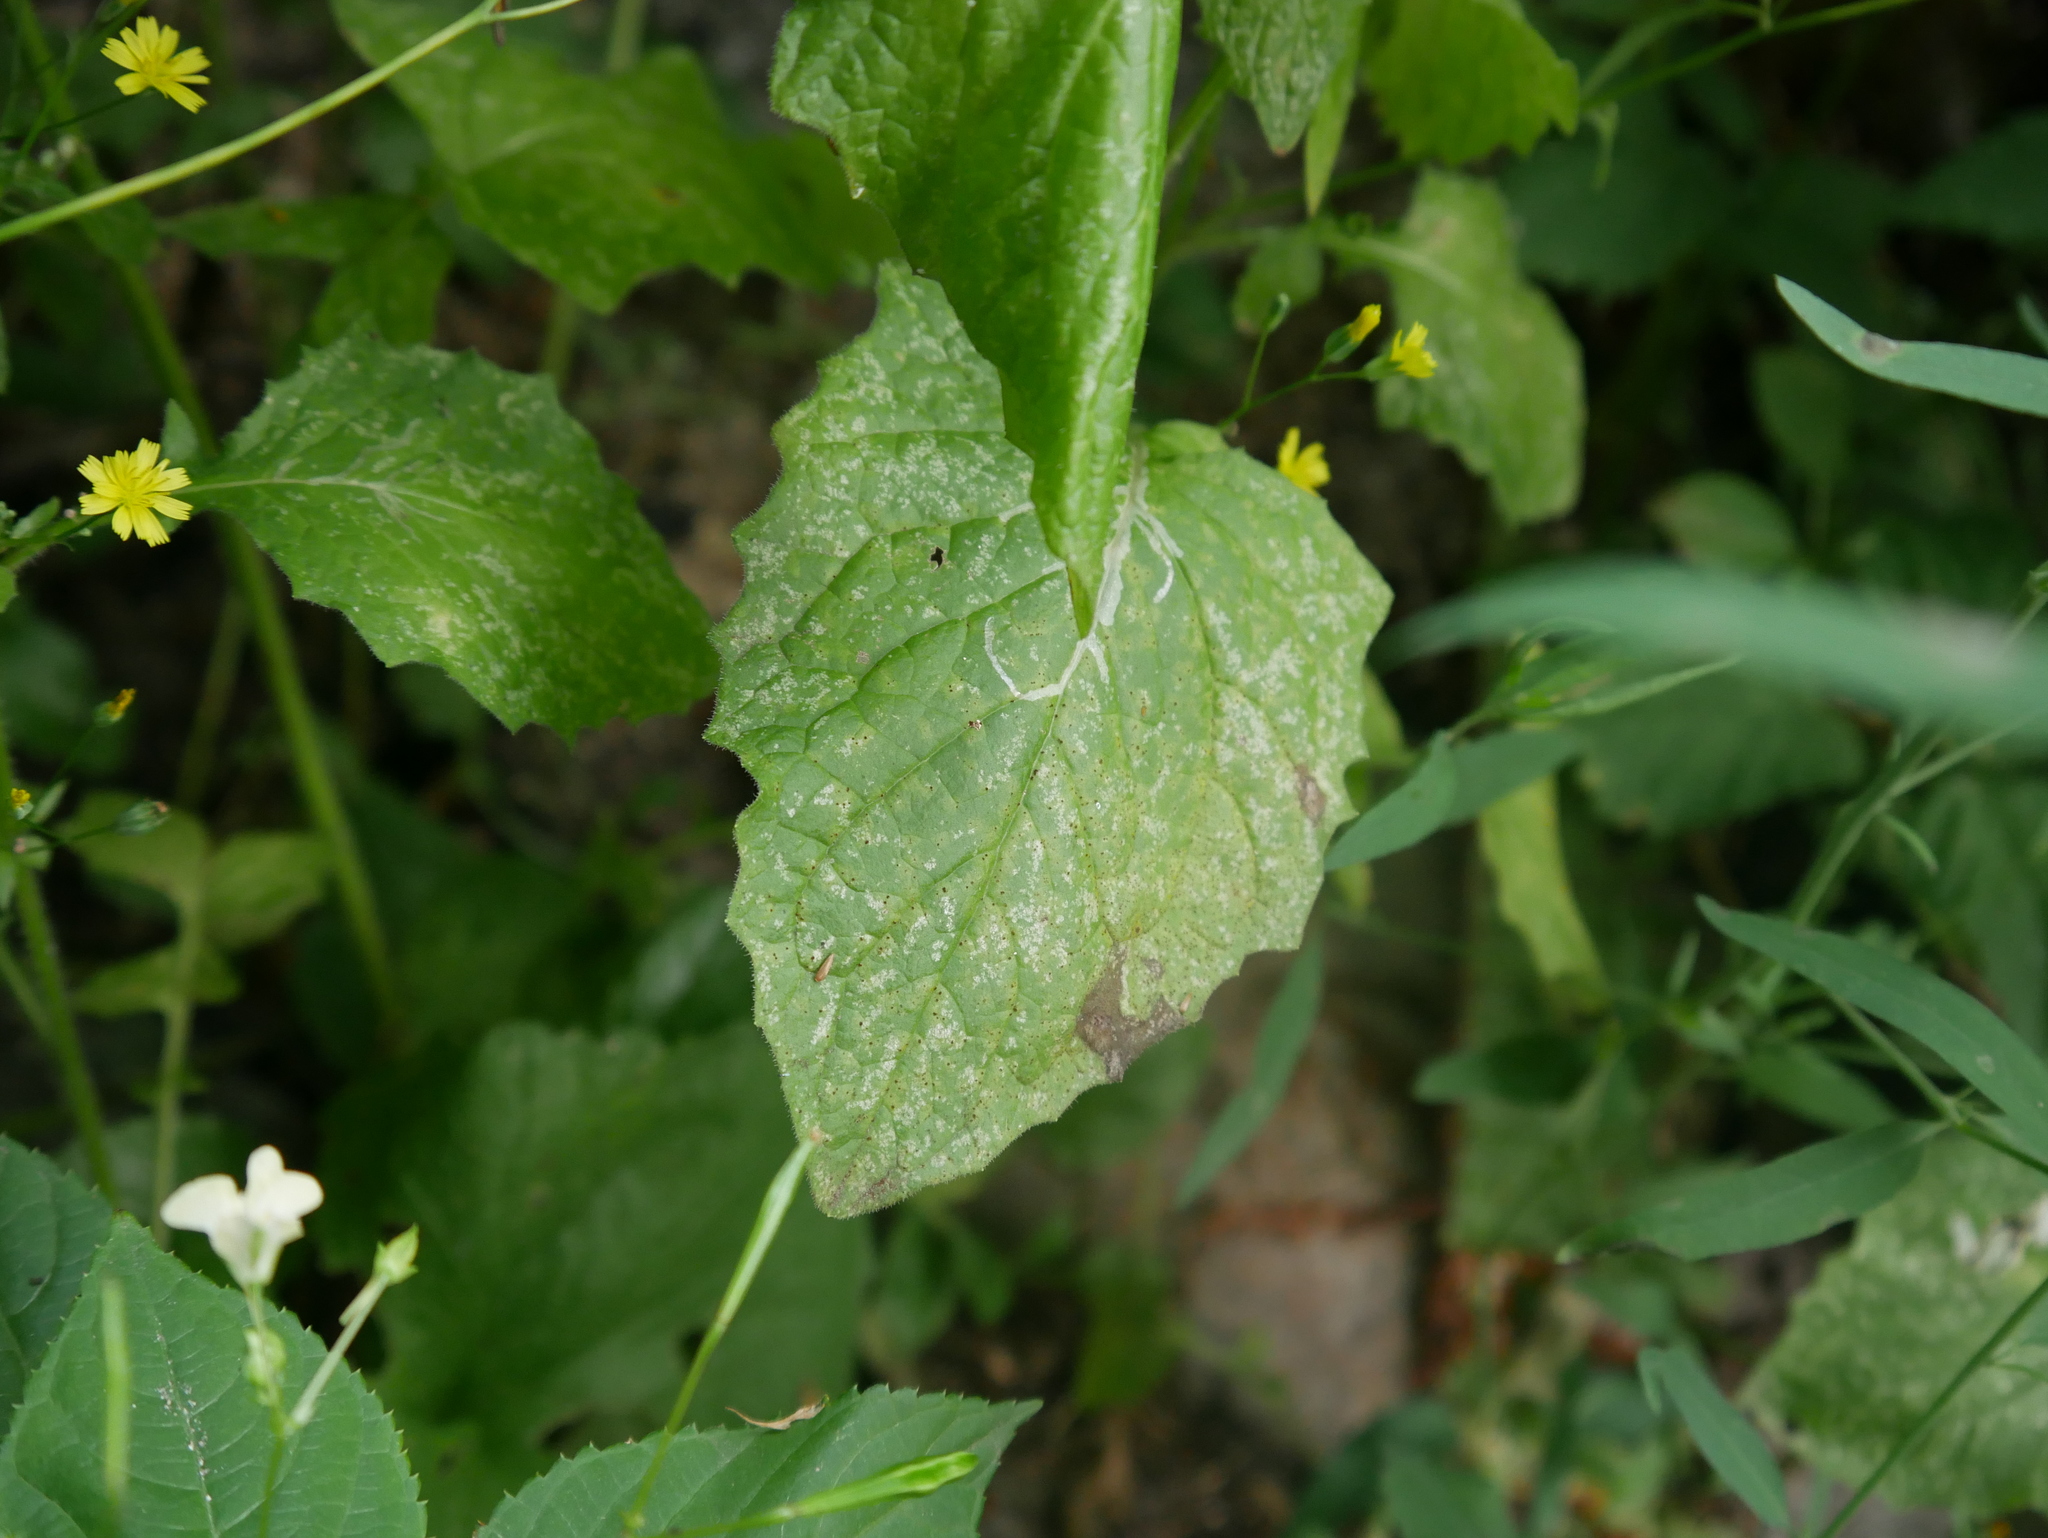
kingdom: Plantae
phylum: Tracheophyta
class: Magnoliopsida
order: Asterales
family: Asteraceae
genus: Lapsana
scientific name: Lapsana communis
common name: Nipplewort
